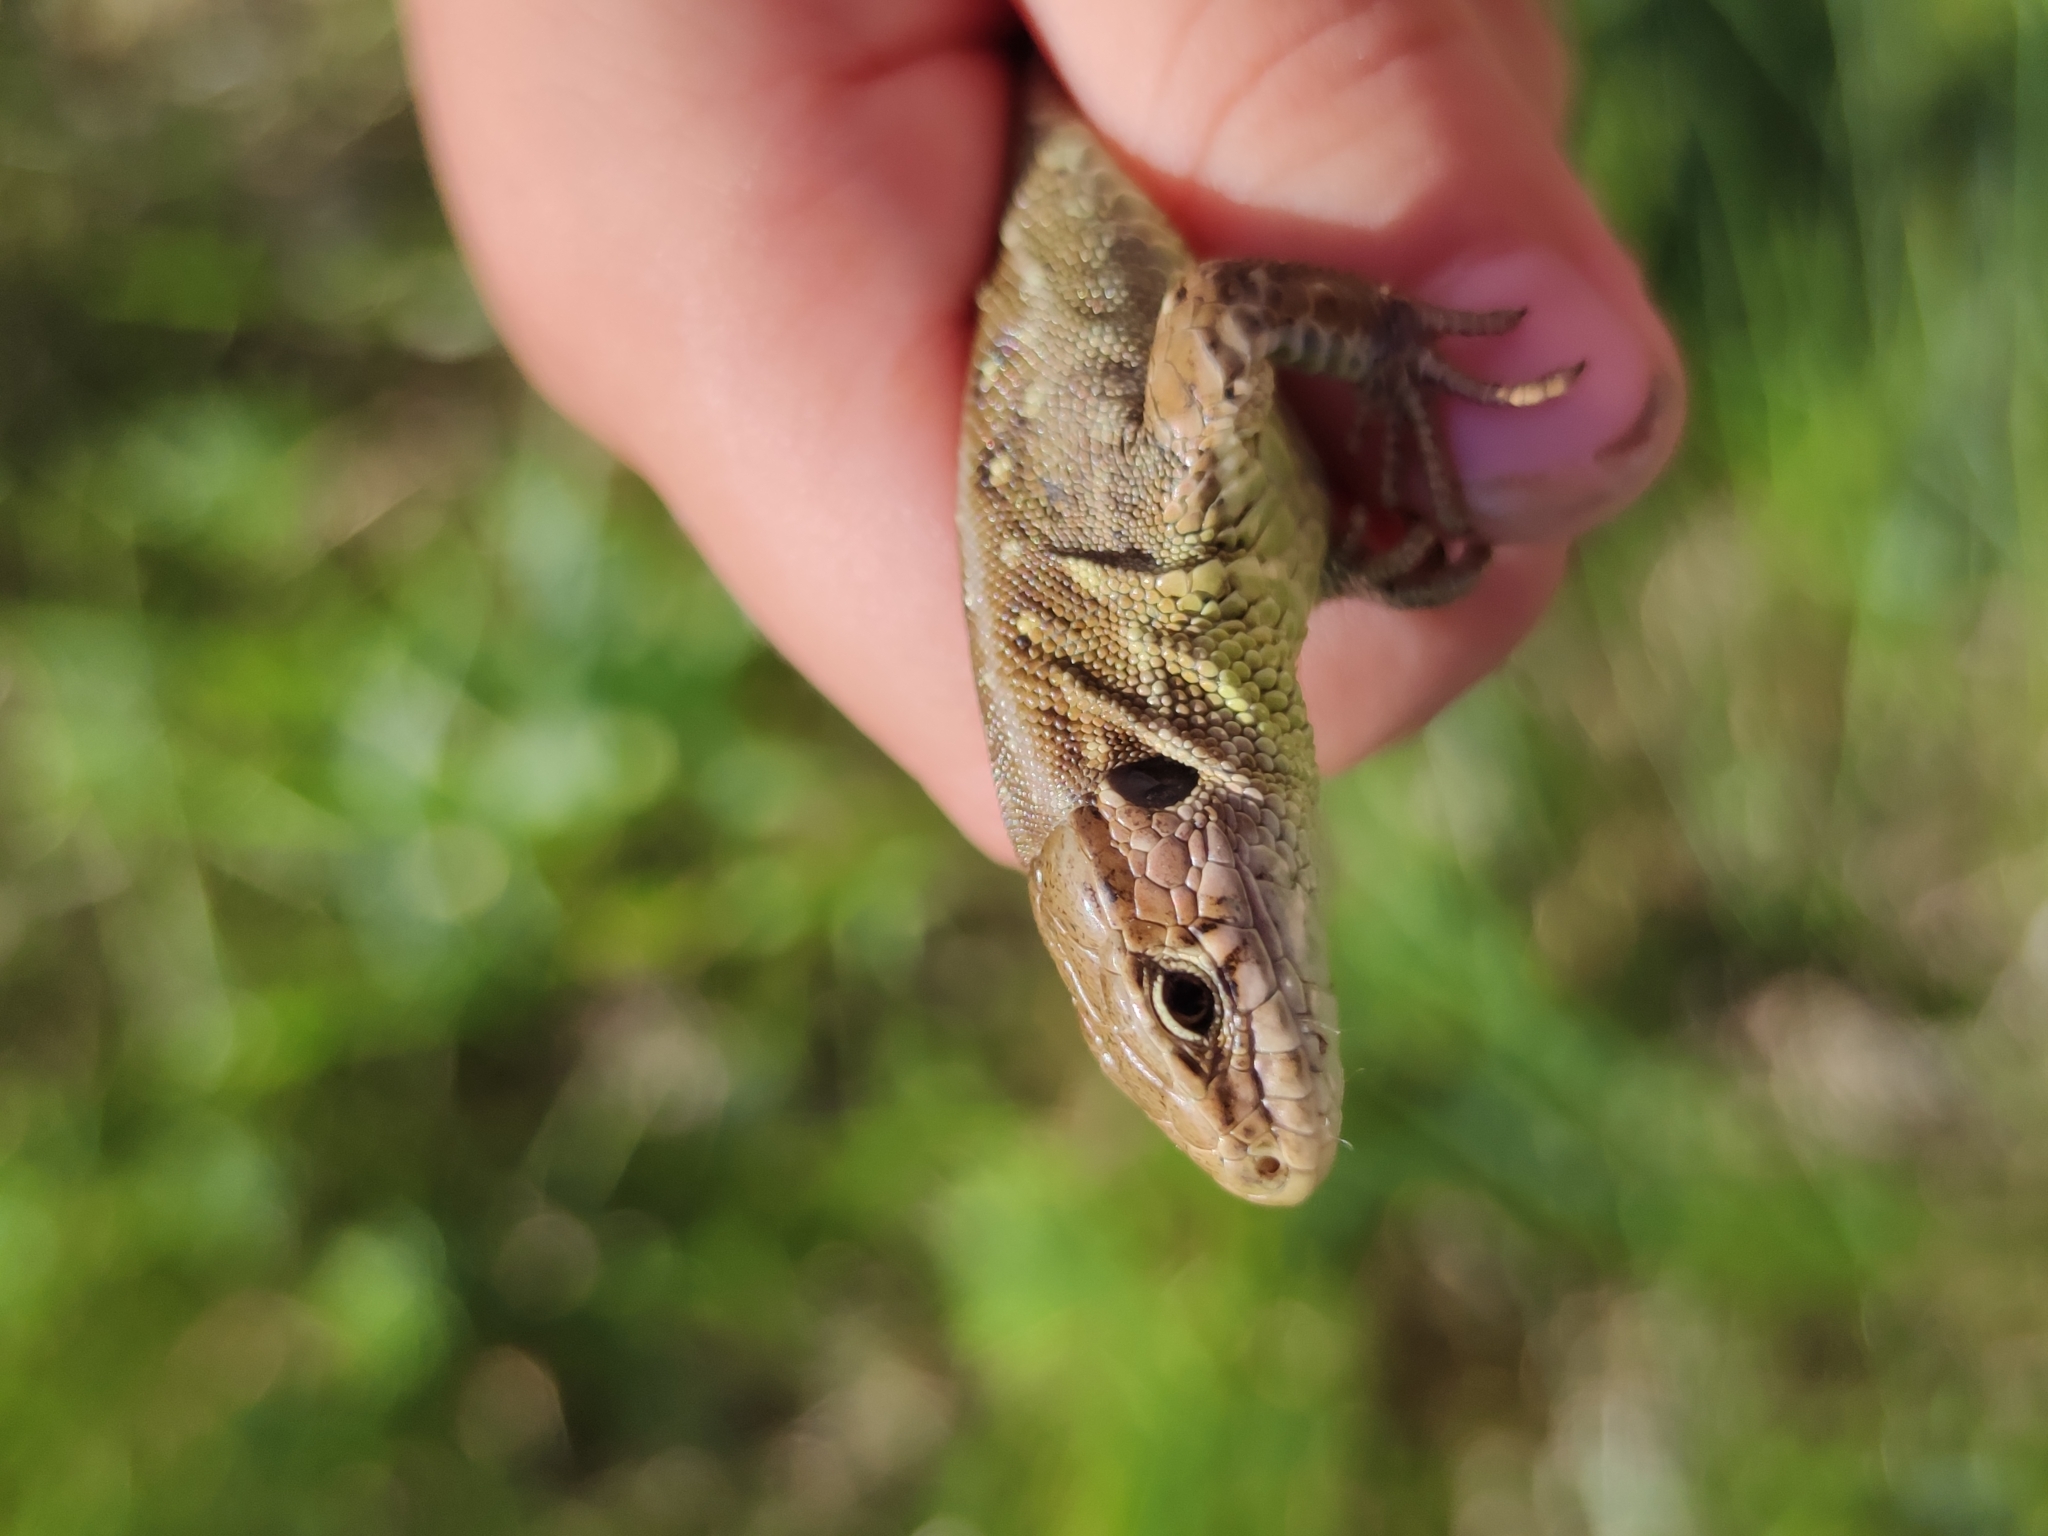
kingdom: Animalia
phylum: Chordata
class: Squamata
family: Lacertidae
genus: Lacerta
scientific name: Lacerta agilis
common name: Sand lizard
